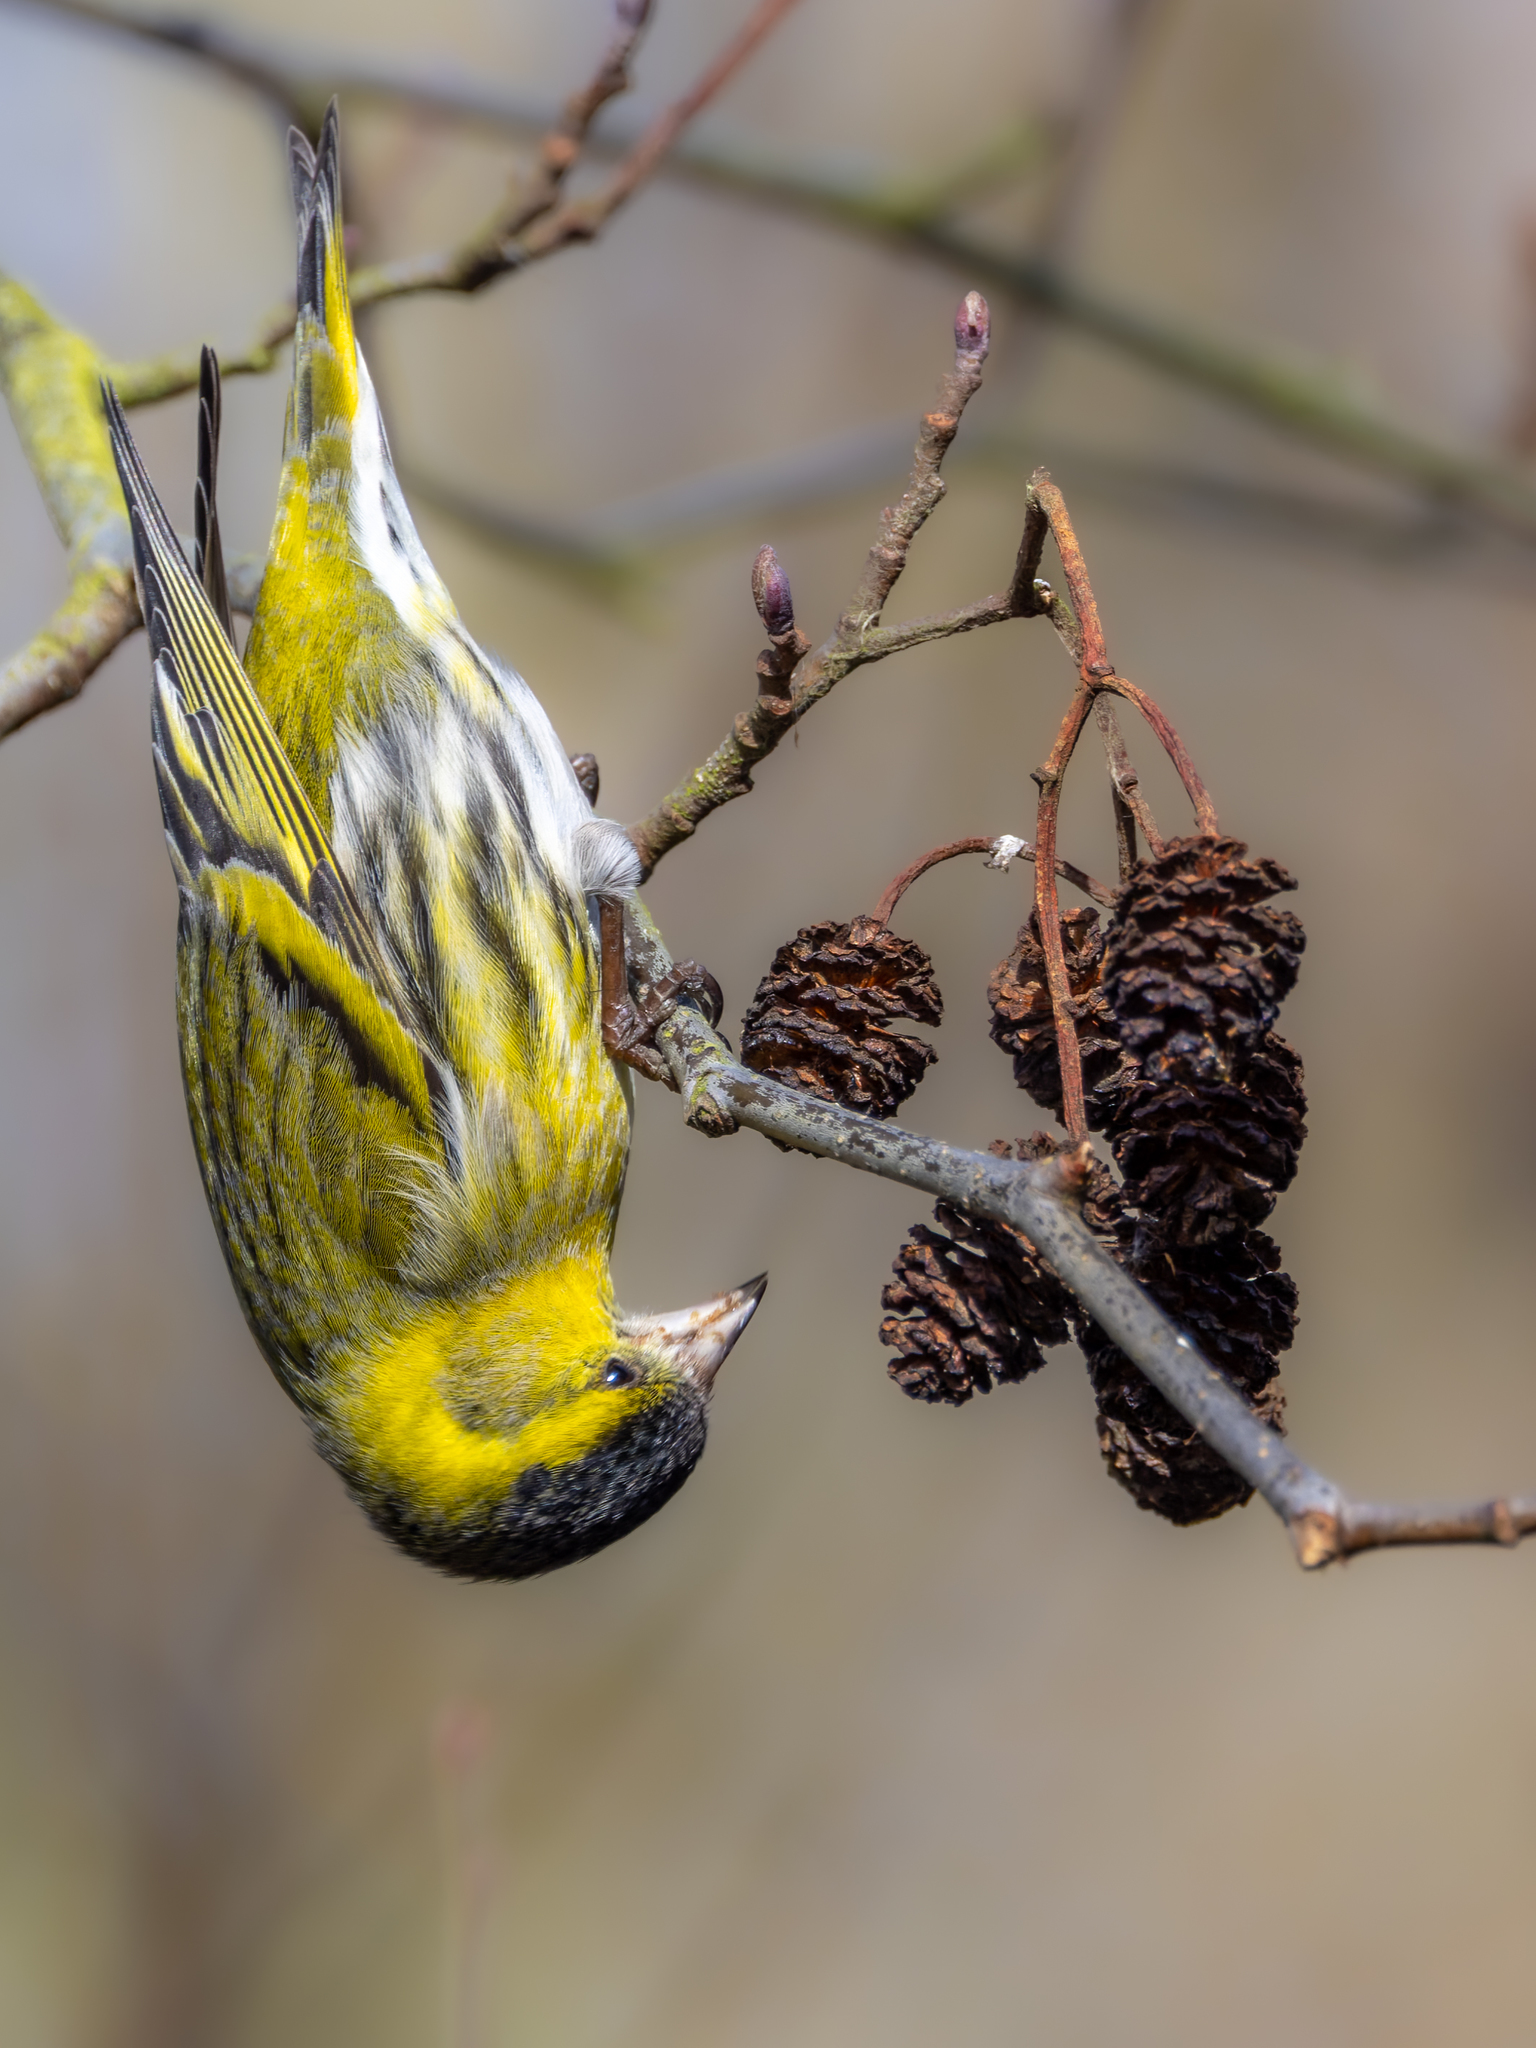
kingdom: Animalia
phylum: Chordata
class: Aves
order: Passeriformes
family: Fringillidae
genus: Spinus
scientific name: Spinus spinus
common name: Eurasian siskin
